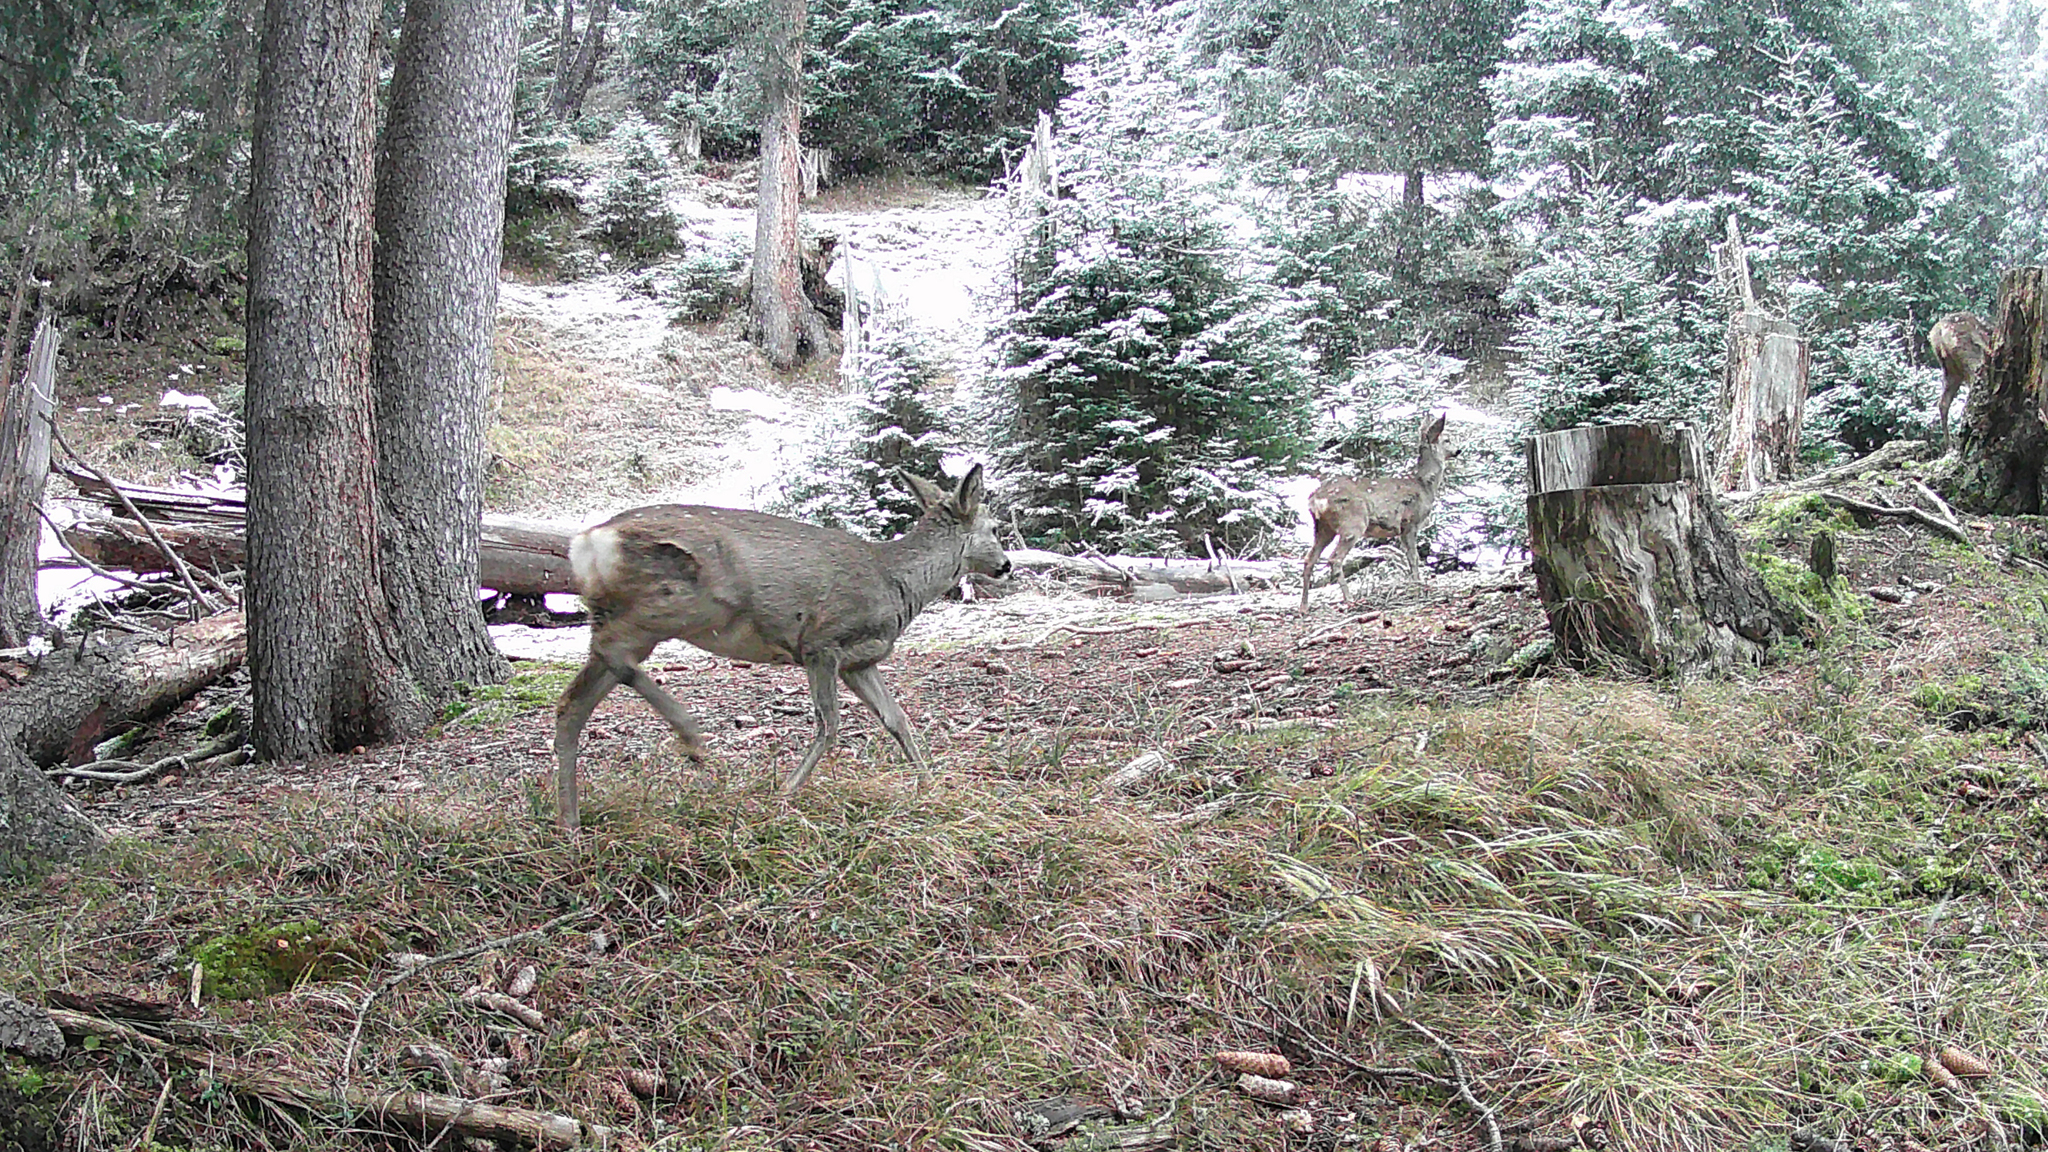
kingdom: Animalia
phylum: Chordata
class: Mammalia
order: Artiodactyla
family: Cervidae
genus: Capreolus
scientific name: Capreolus capreolus
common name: Western roe deer
